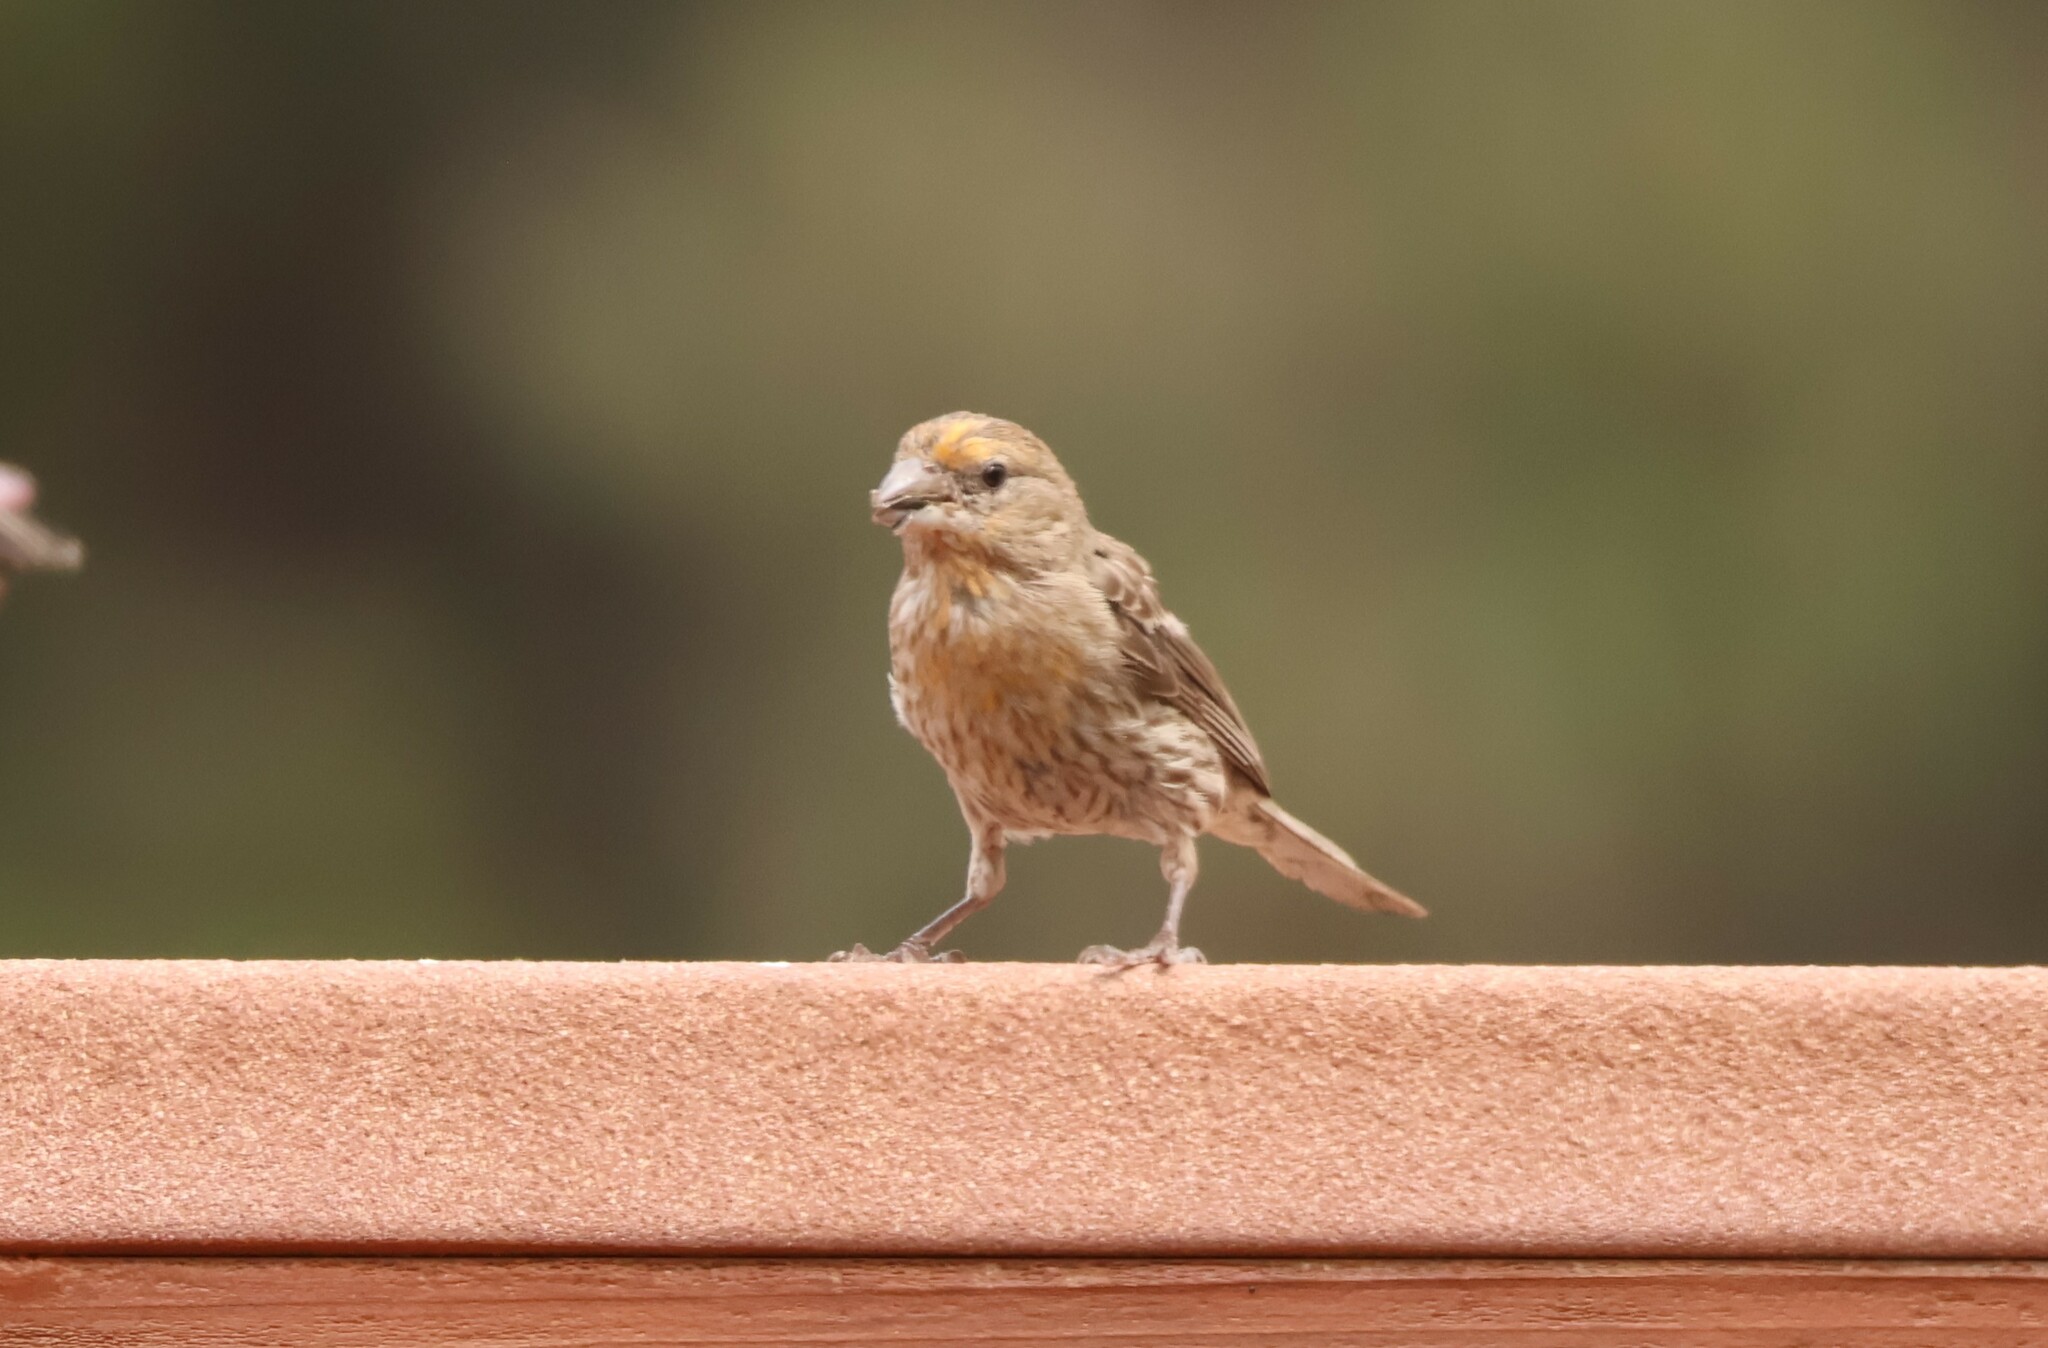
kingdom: Animalia
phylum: Chordata
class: Aves
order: Passeriformes
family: Fringillidae
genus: Haemorhous
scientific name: Haemorhous mexicanus
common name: House finch
